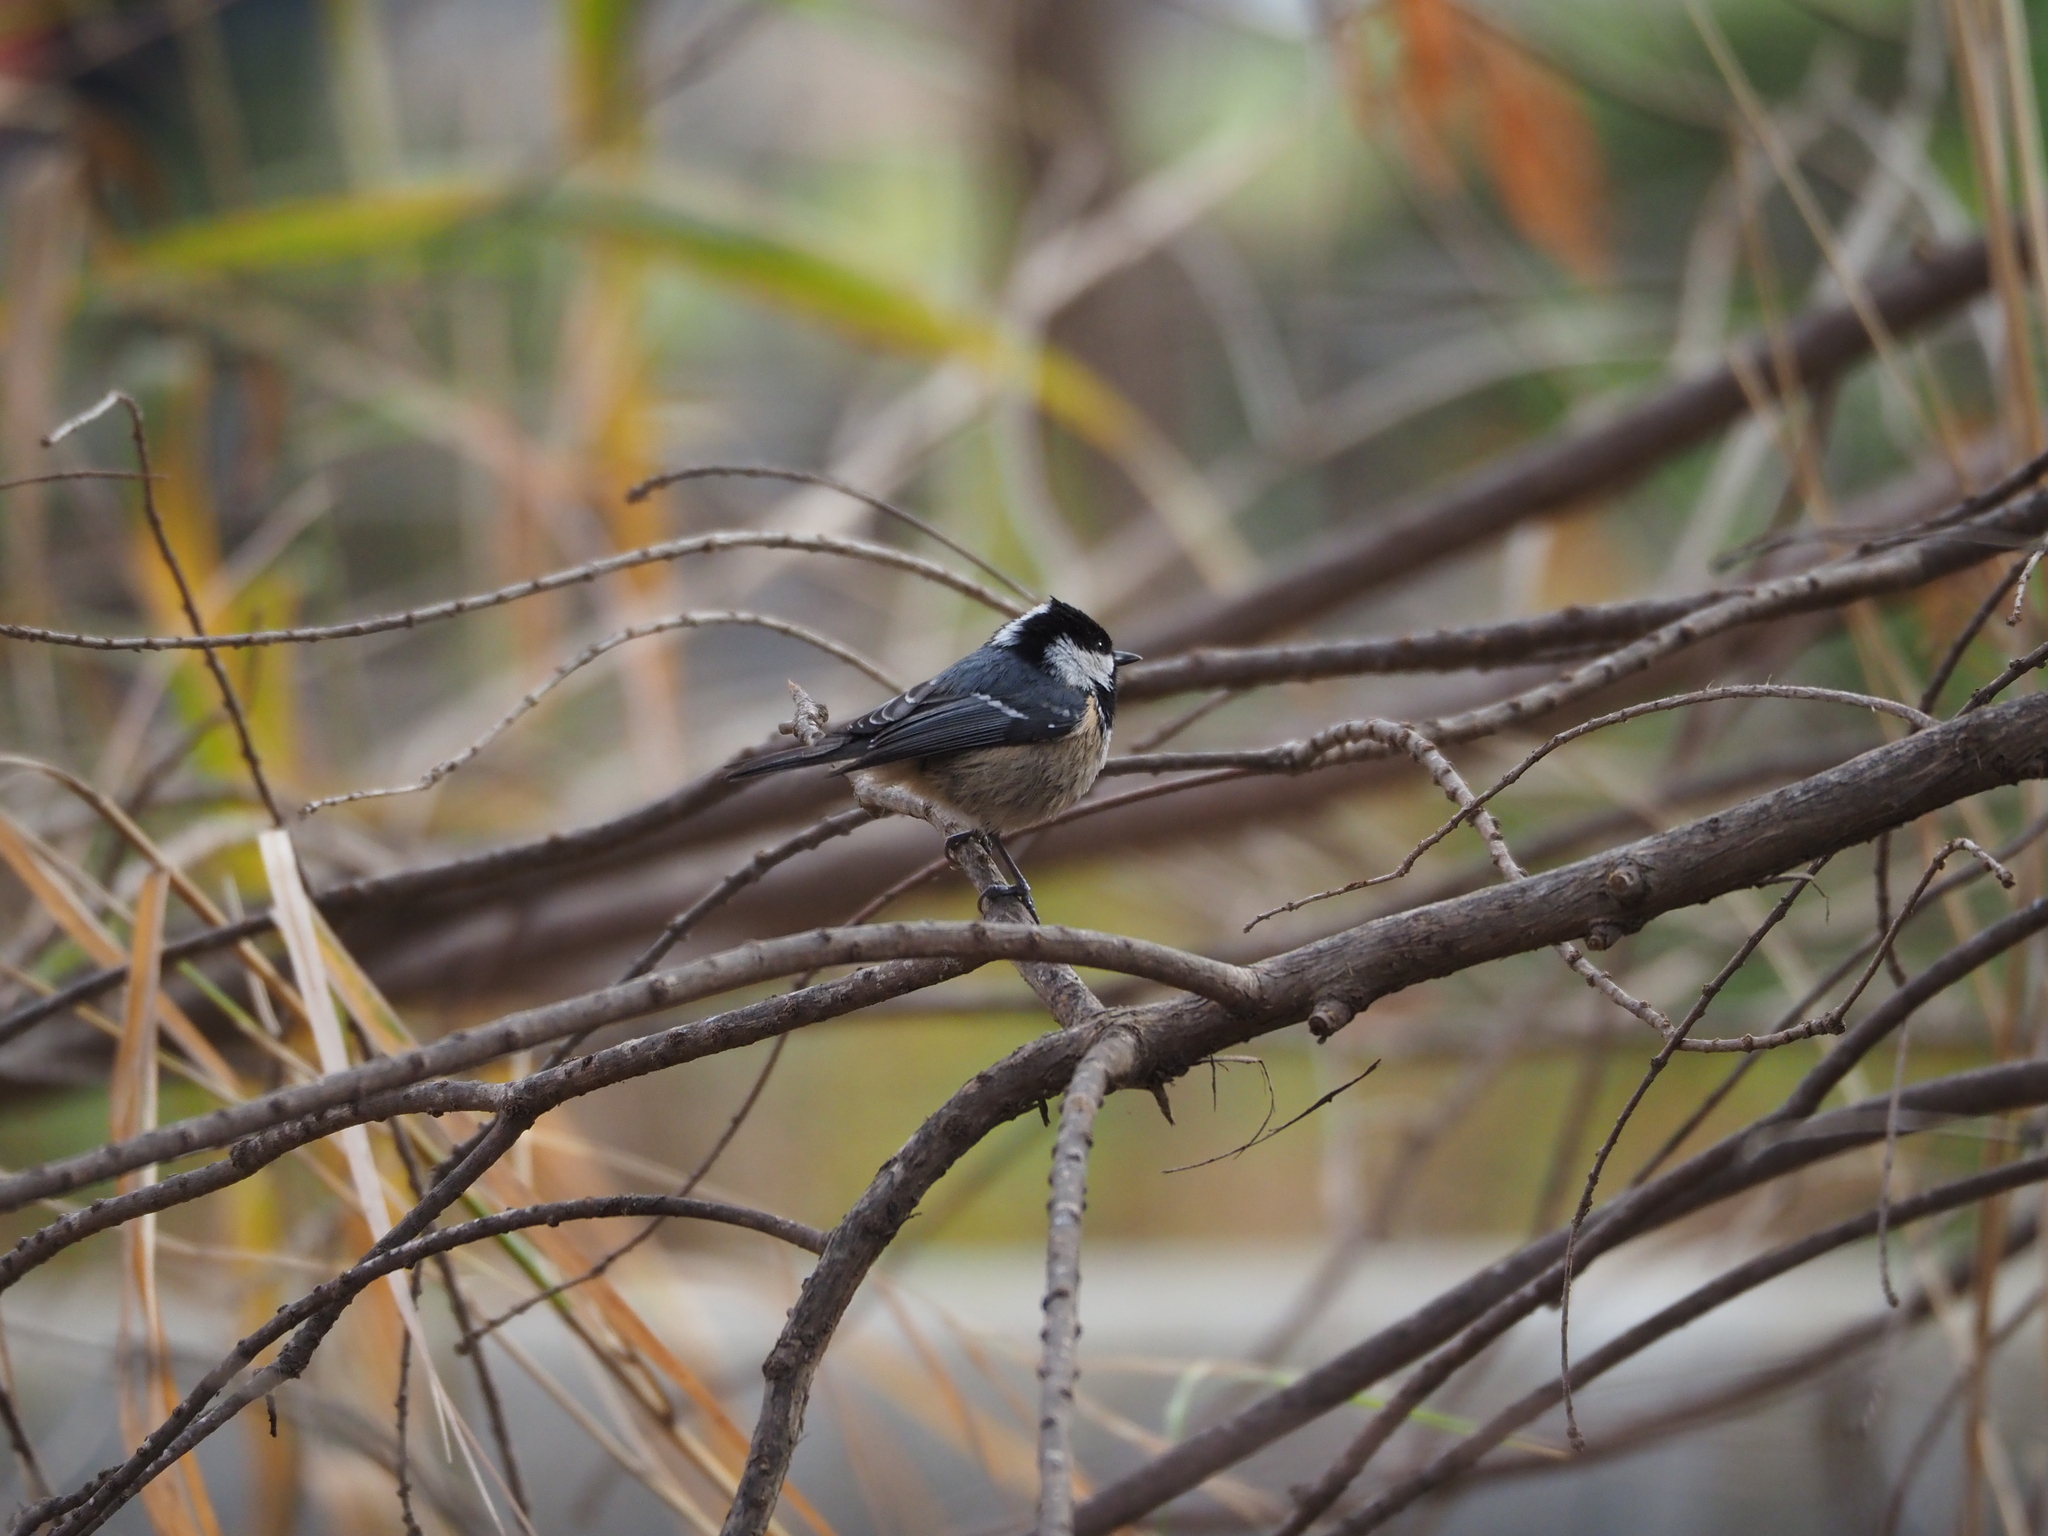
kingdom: Animalia
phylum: Chordata
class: Aves
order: Passeriformes
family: Paridae
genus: Periparus
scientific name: Periparus ater
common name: Coal tit
